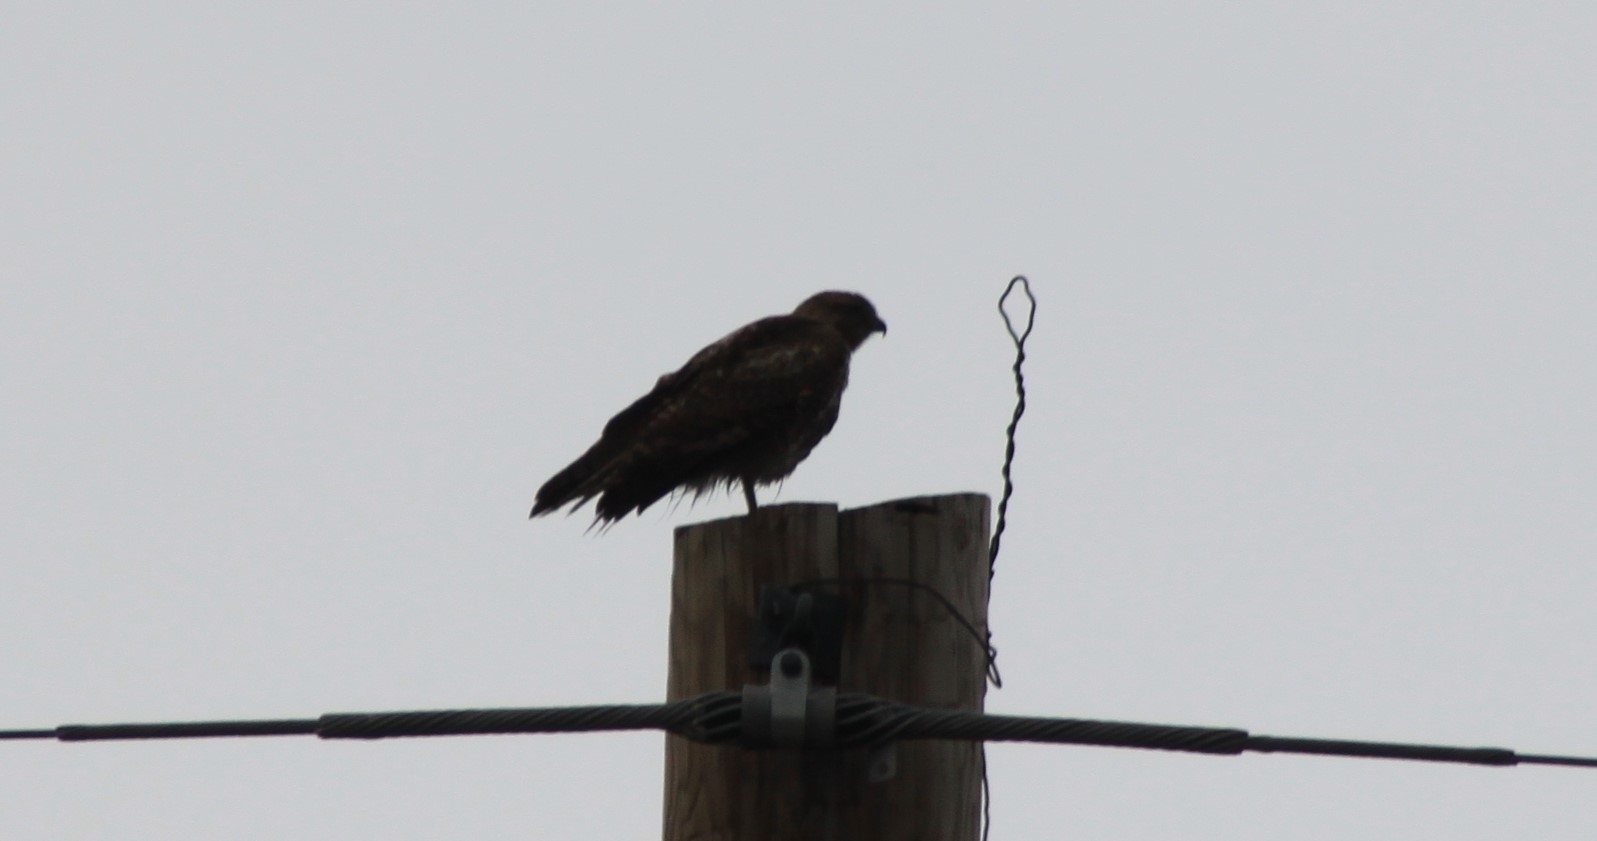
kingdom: Animalia
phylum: Chordata
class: Aves
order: Accipitriformes
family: Accipitridae
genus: Buteo
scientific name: Buteo jamaicensis
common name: Red-tailed hawk
